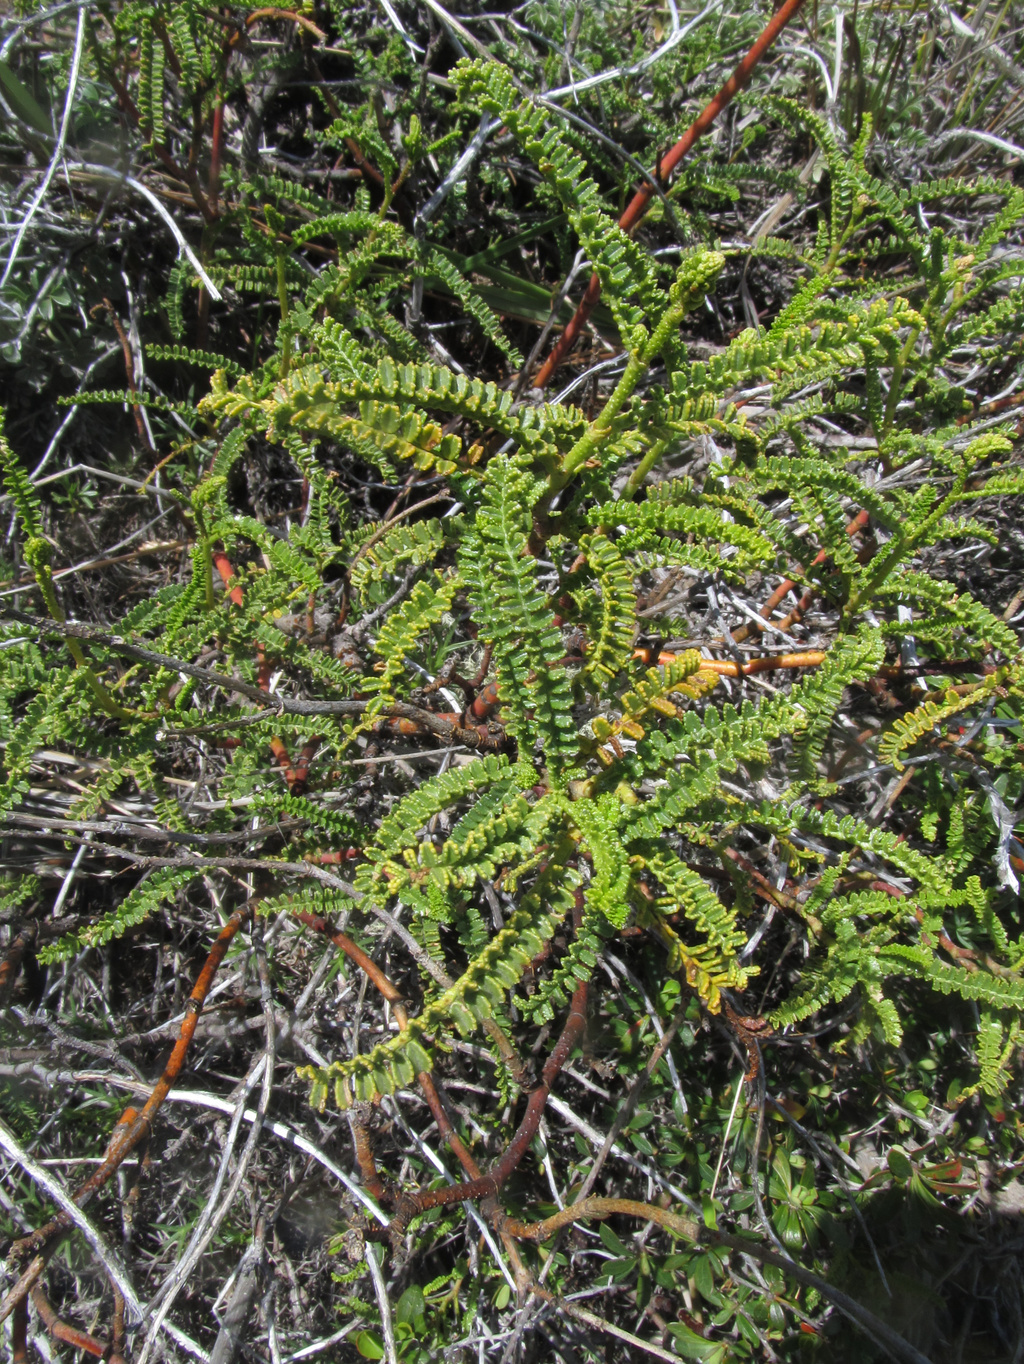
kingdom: Plantae
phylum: Tracheophyta
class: Magnoliopsida
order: Fabales
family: Fabaceae
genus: Adesmia
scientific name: Adesmia boronioides
